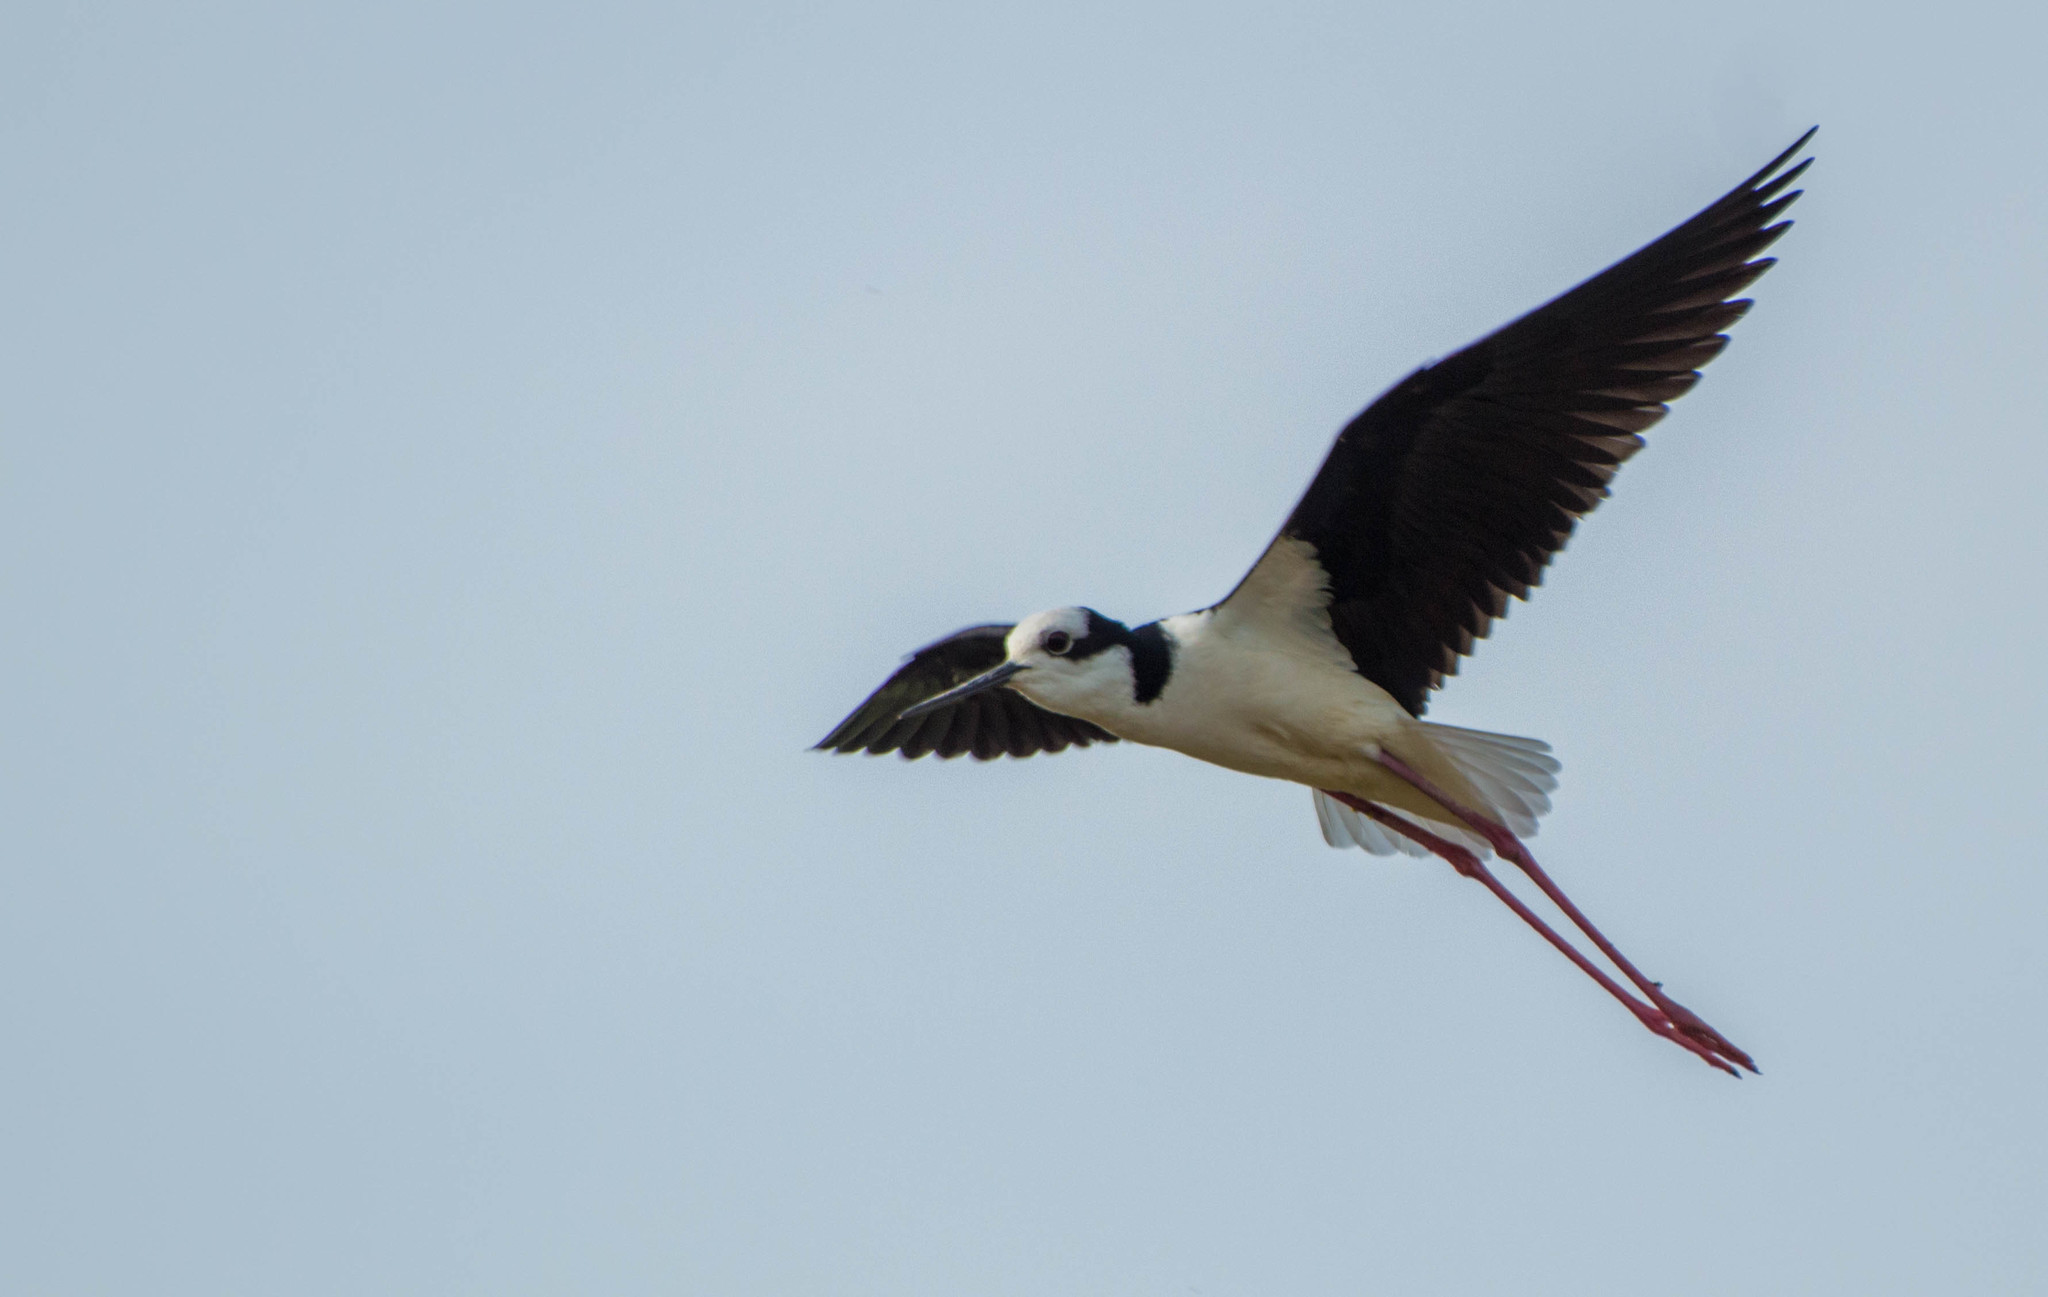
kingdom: Animalia
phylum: Chordata
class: Aves
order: Charadriiformes
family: Recurvirostridae
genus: Himantopus
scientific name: Himantopus mexicanus
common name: Black-necked stilt
